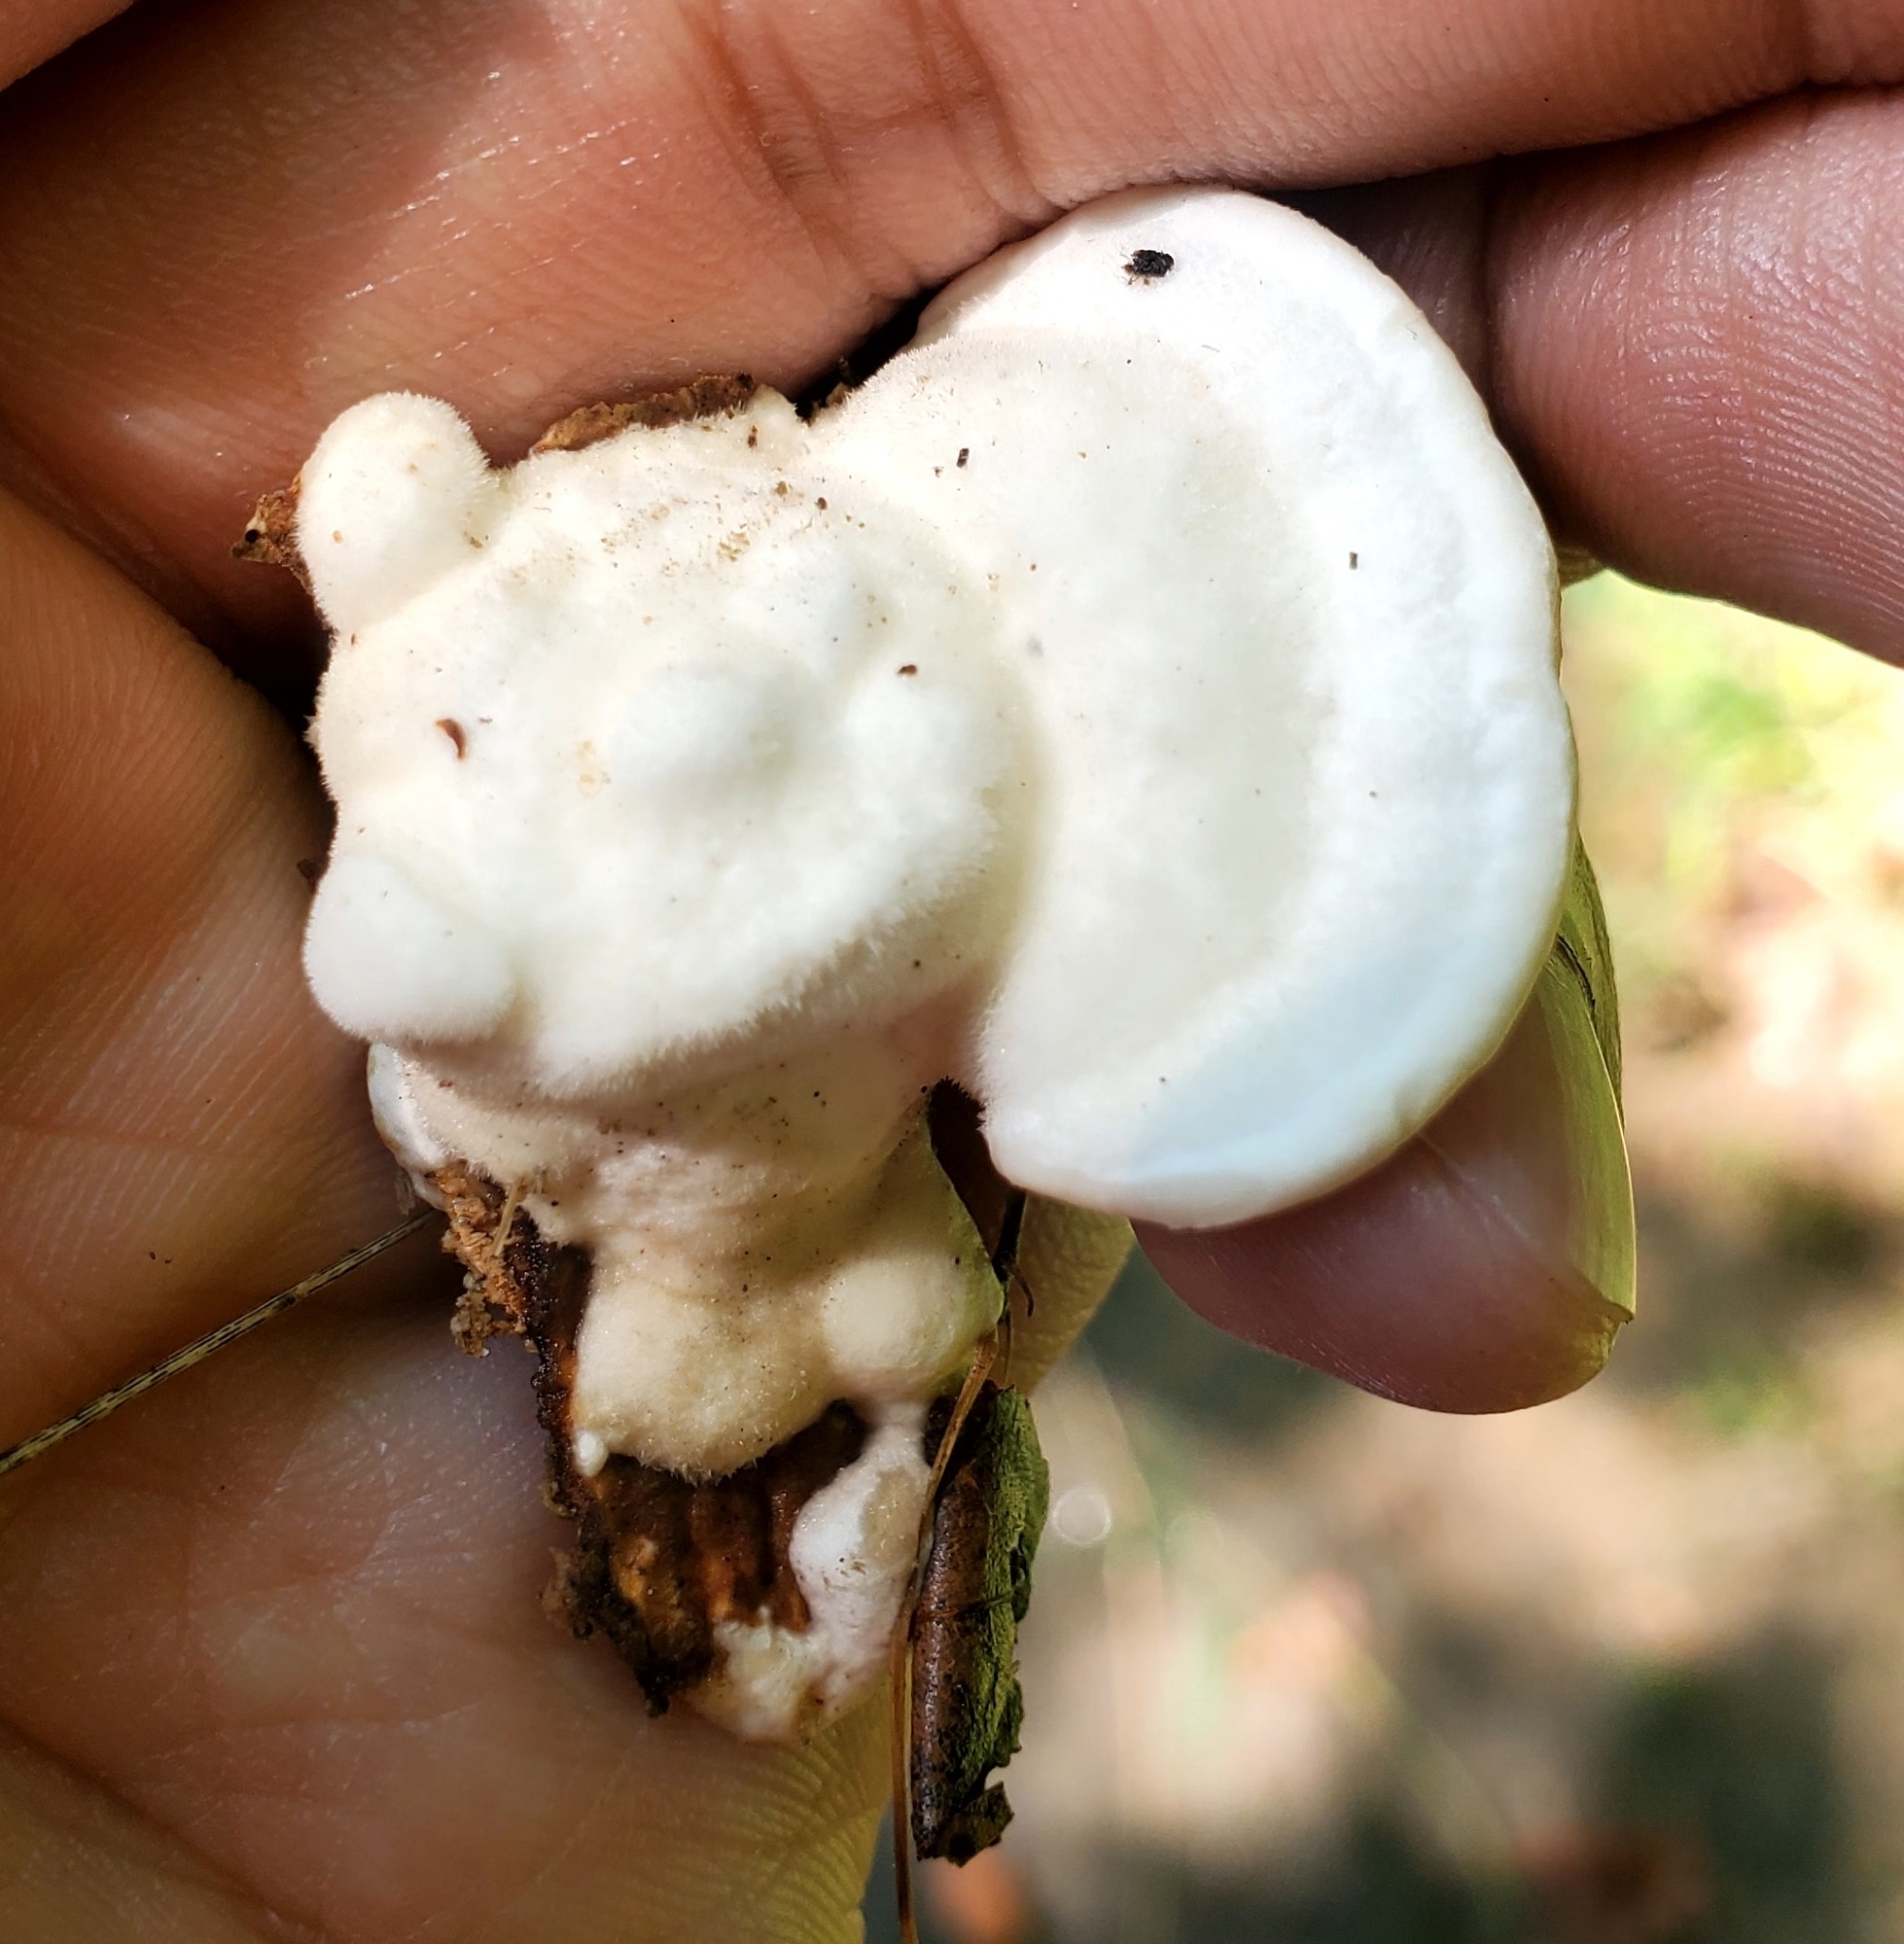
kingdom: Fungi
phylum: Basidiomycota
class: Agaricomycetes
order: Polyporales
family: Polyporaceae
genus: Trametes
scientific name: Trametes gibbosa
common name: Lumpy bracket
